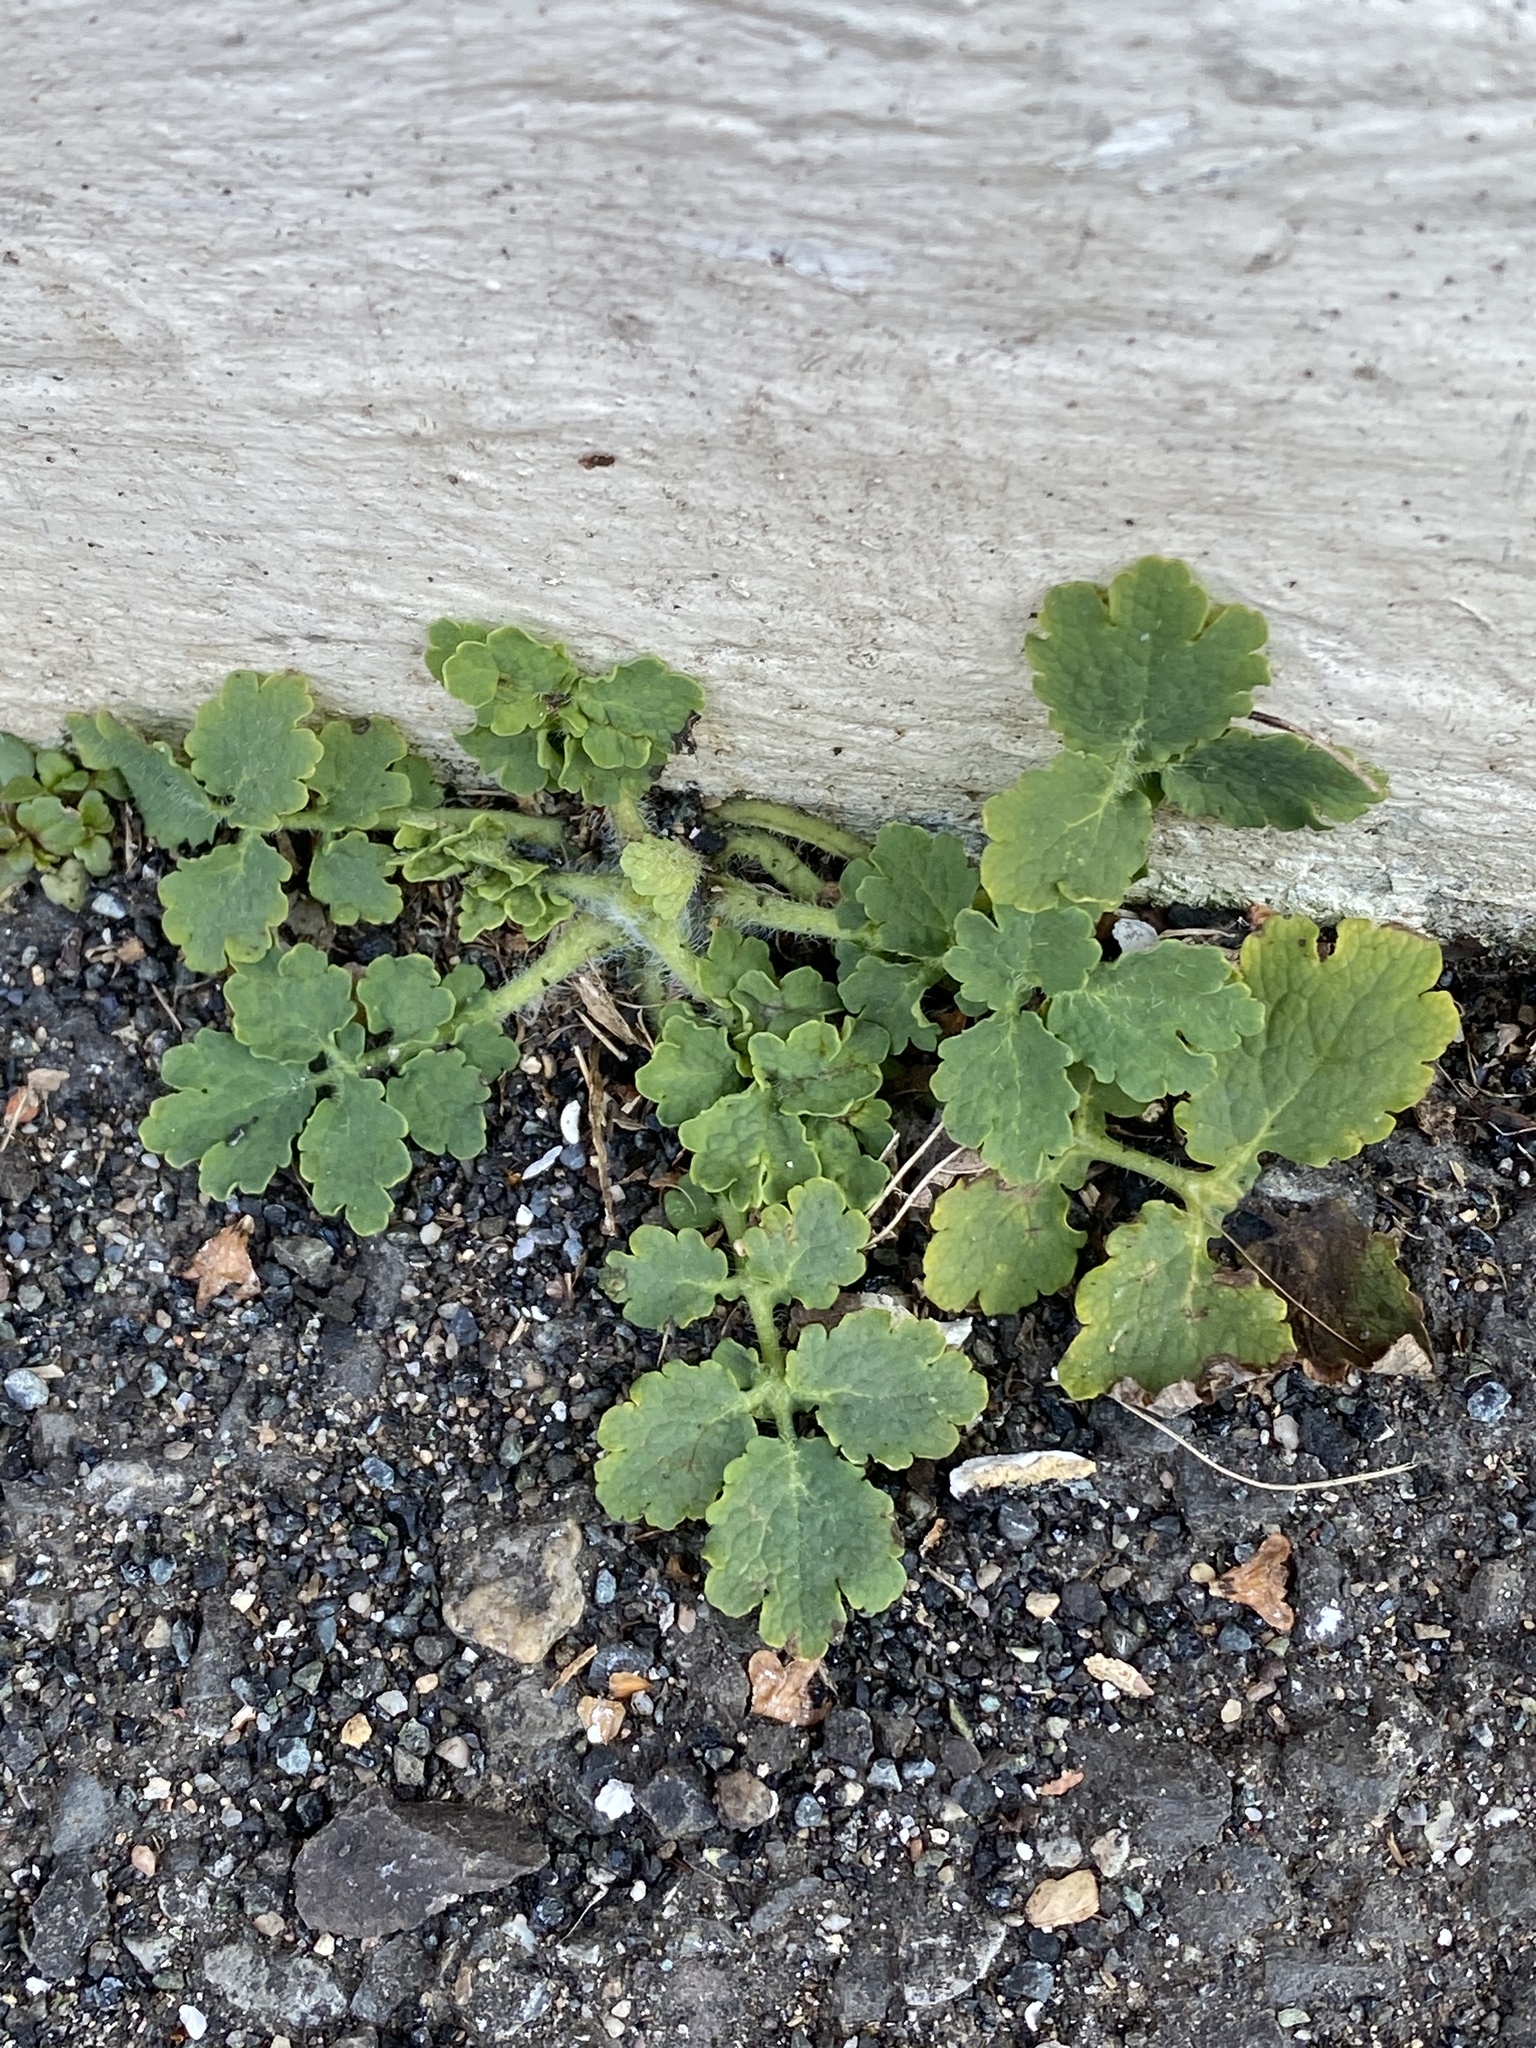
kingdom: Plantae
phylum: Tracheophyta
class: Magnoliopsida
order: Ranunculales
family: Papaveraceae
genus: Chelidonium
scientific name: Chelidonium majus
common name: Greater celandine
